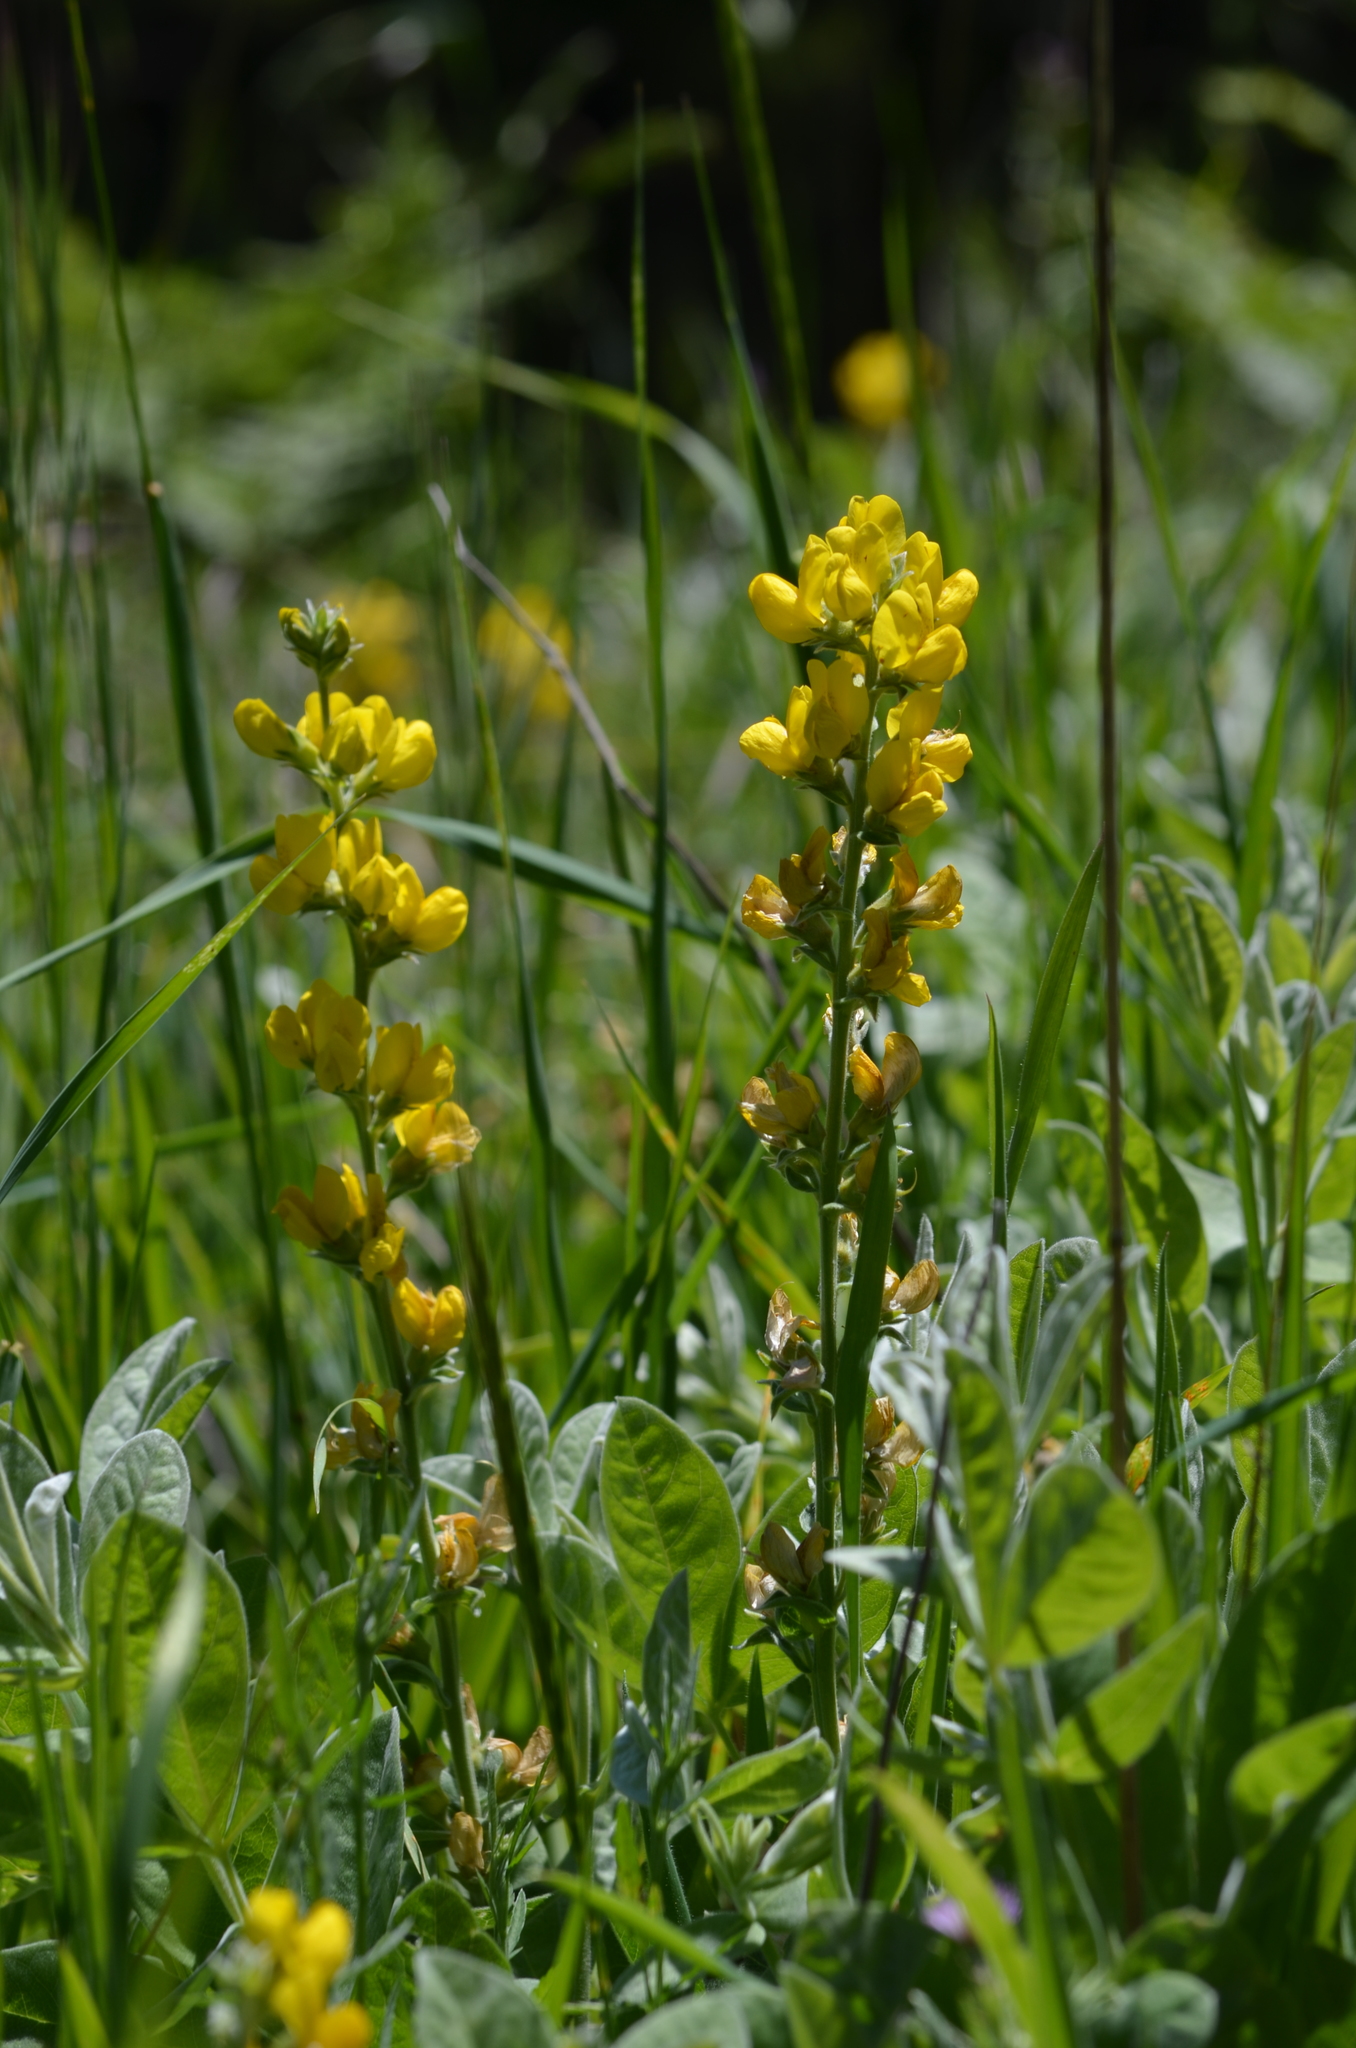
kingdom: Plantae
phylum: Tracheophyta
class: Magnoliopsida
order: Fabales
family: Fabaceae
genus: Thermopsis
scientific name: Thermopsis californica
